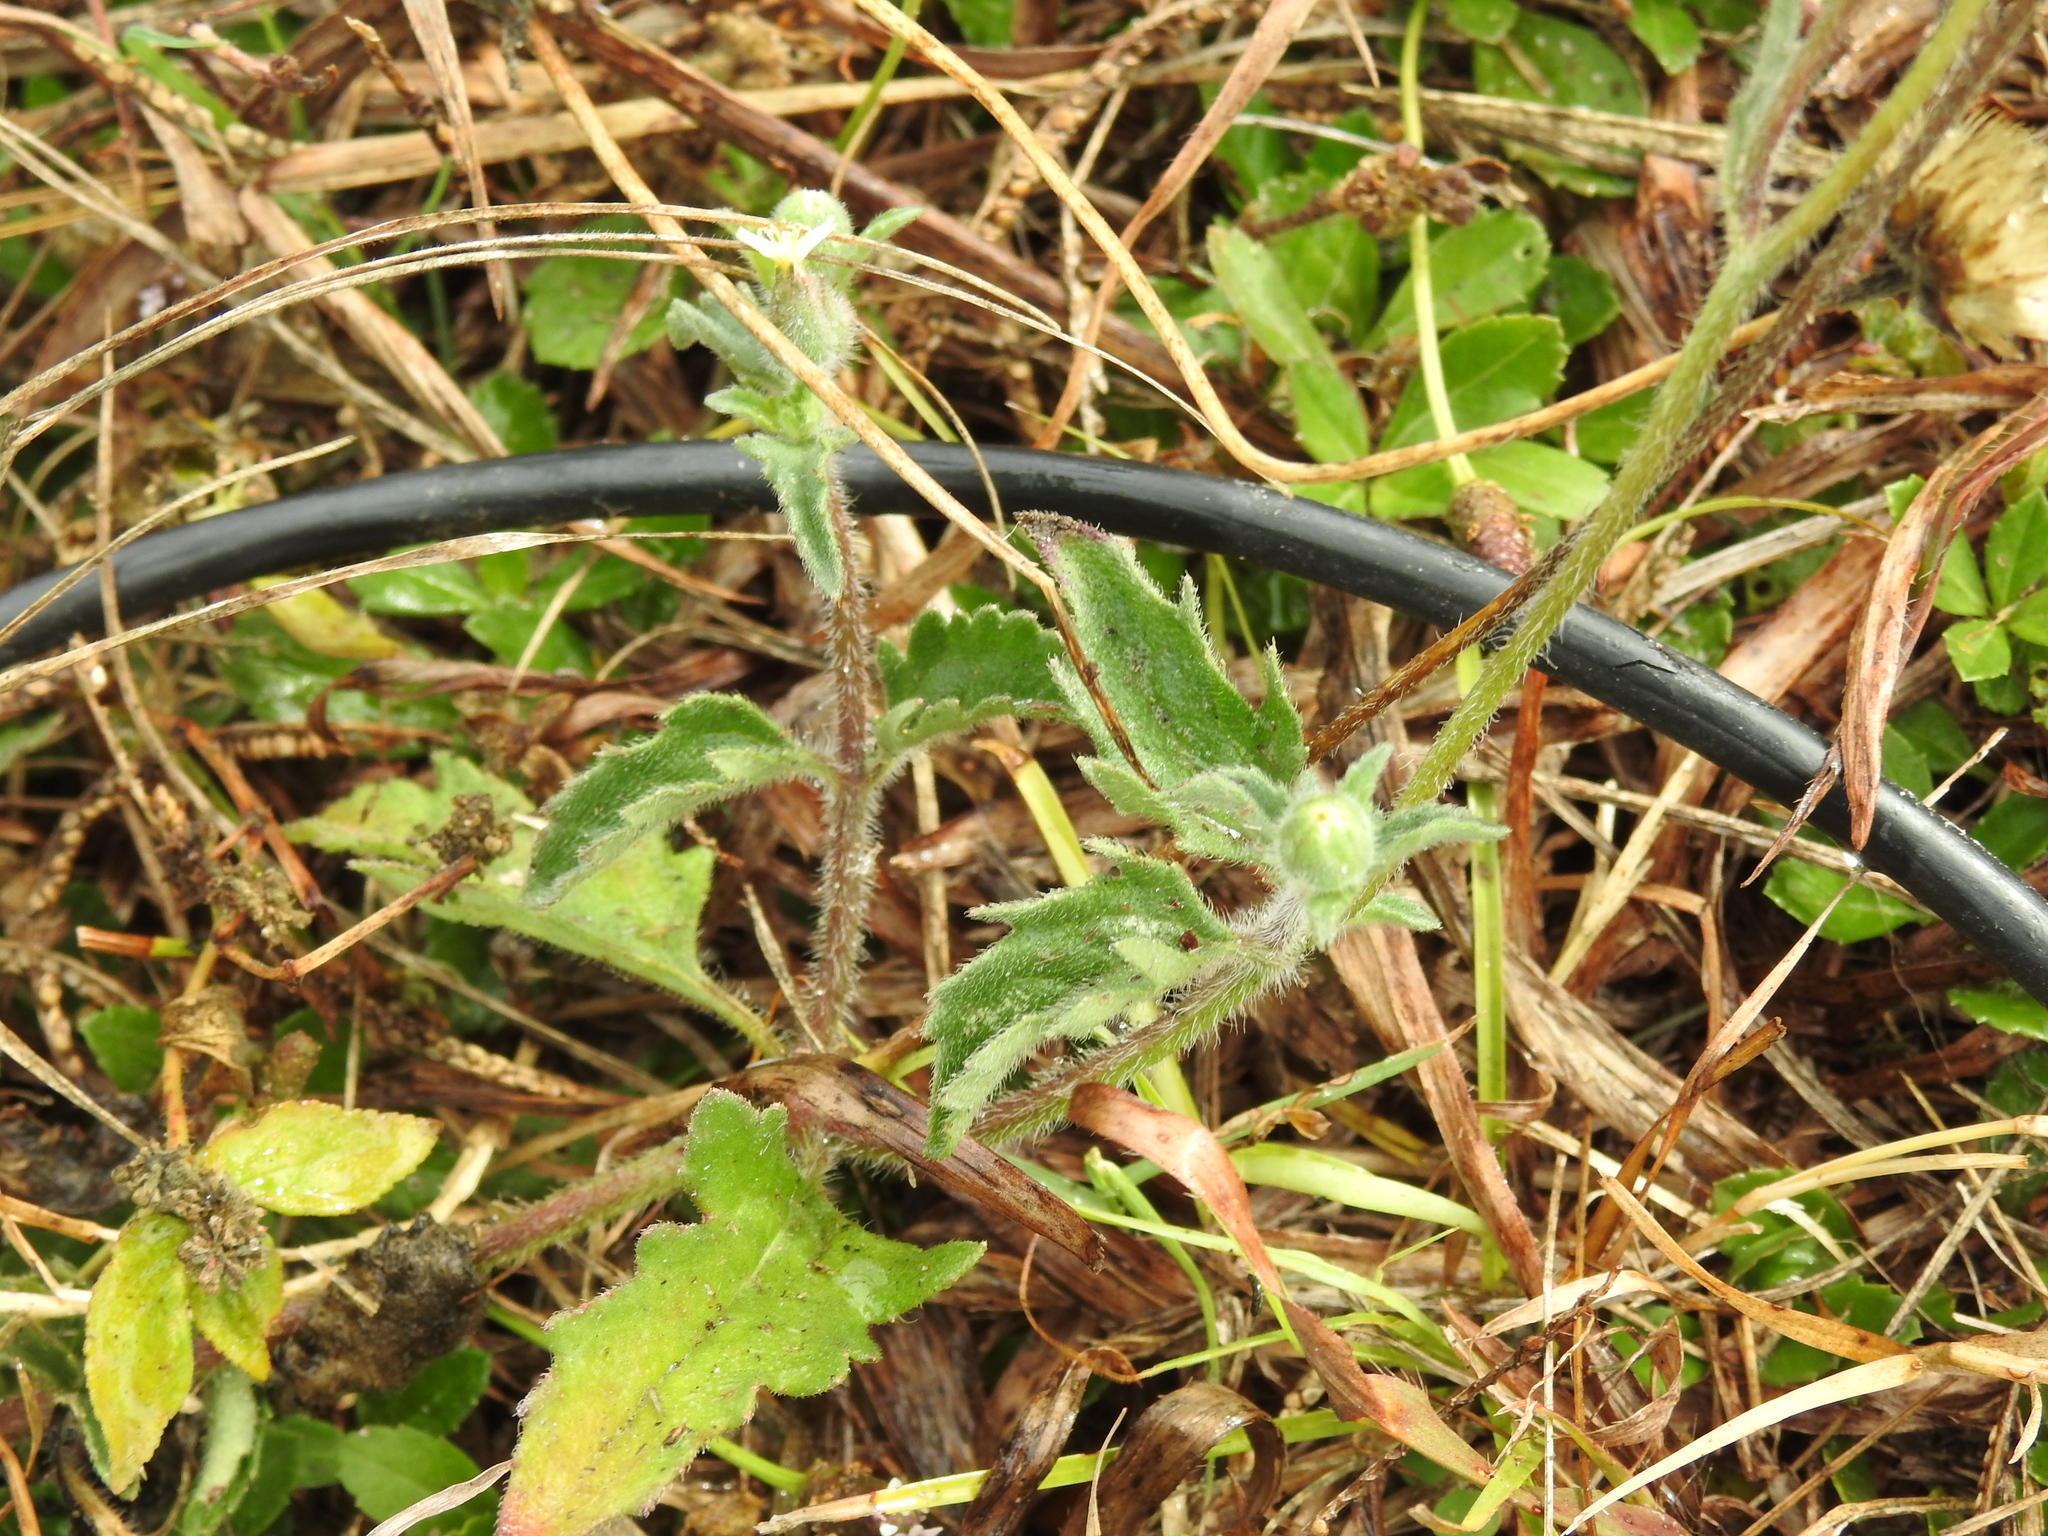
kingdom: Plantae
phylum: Tracheophyta
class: Magnoliopsida
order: Asterales
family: Asteraceae
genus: Tridax
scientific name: Tridax procumbens
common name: Coatbuttons
